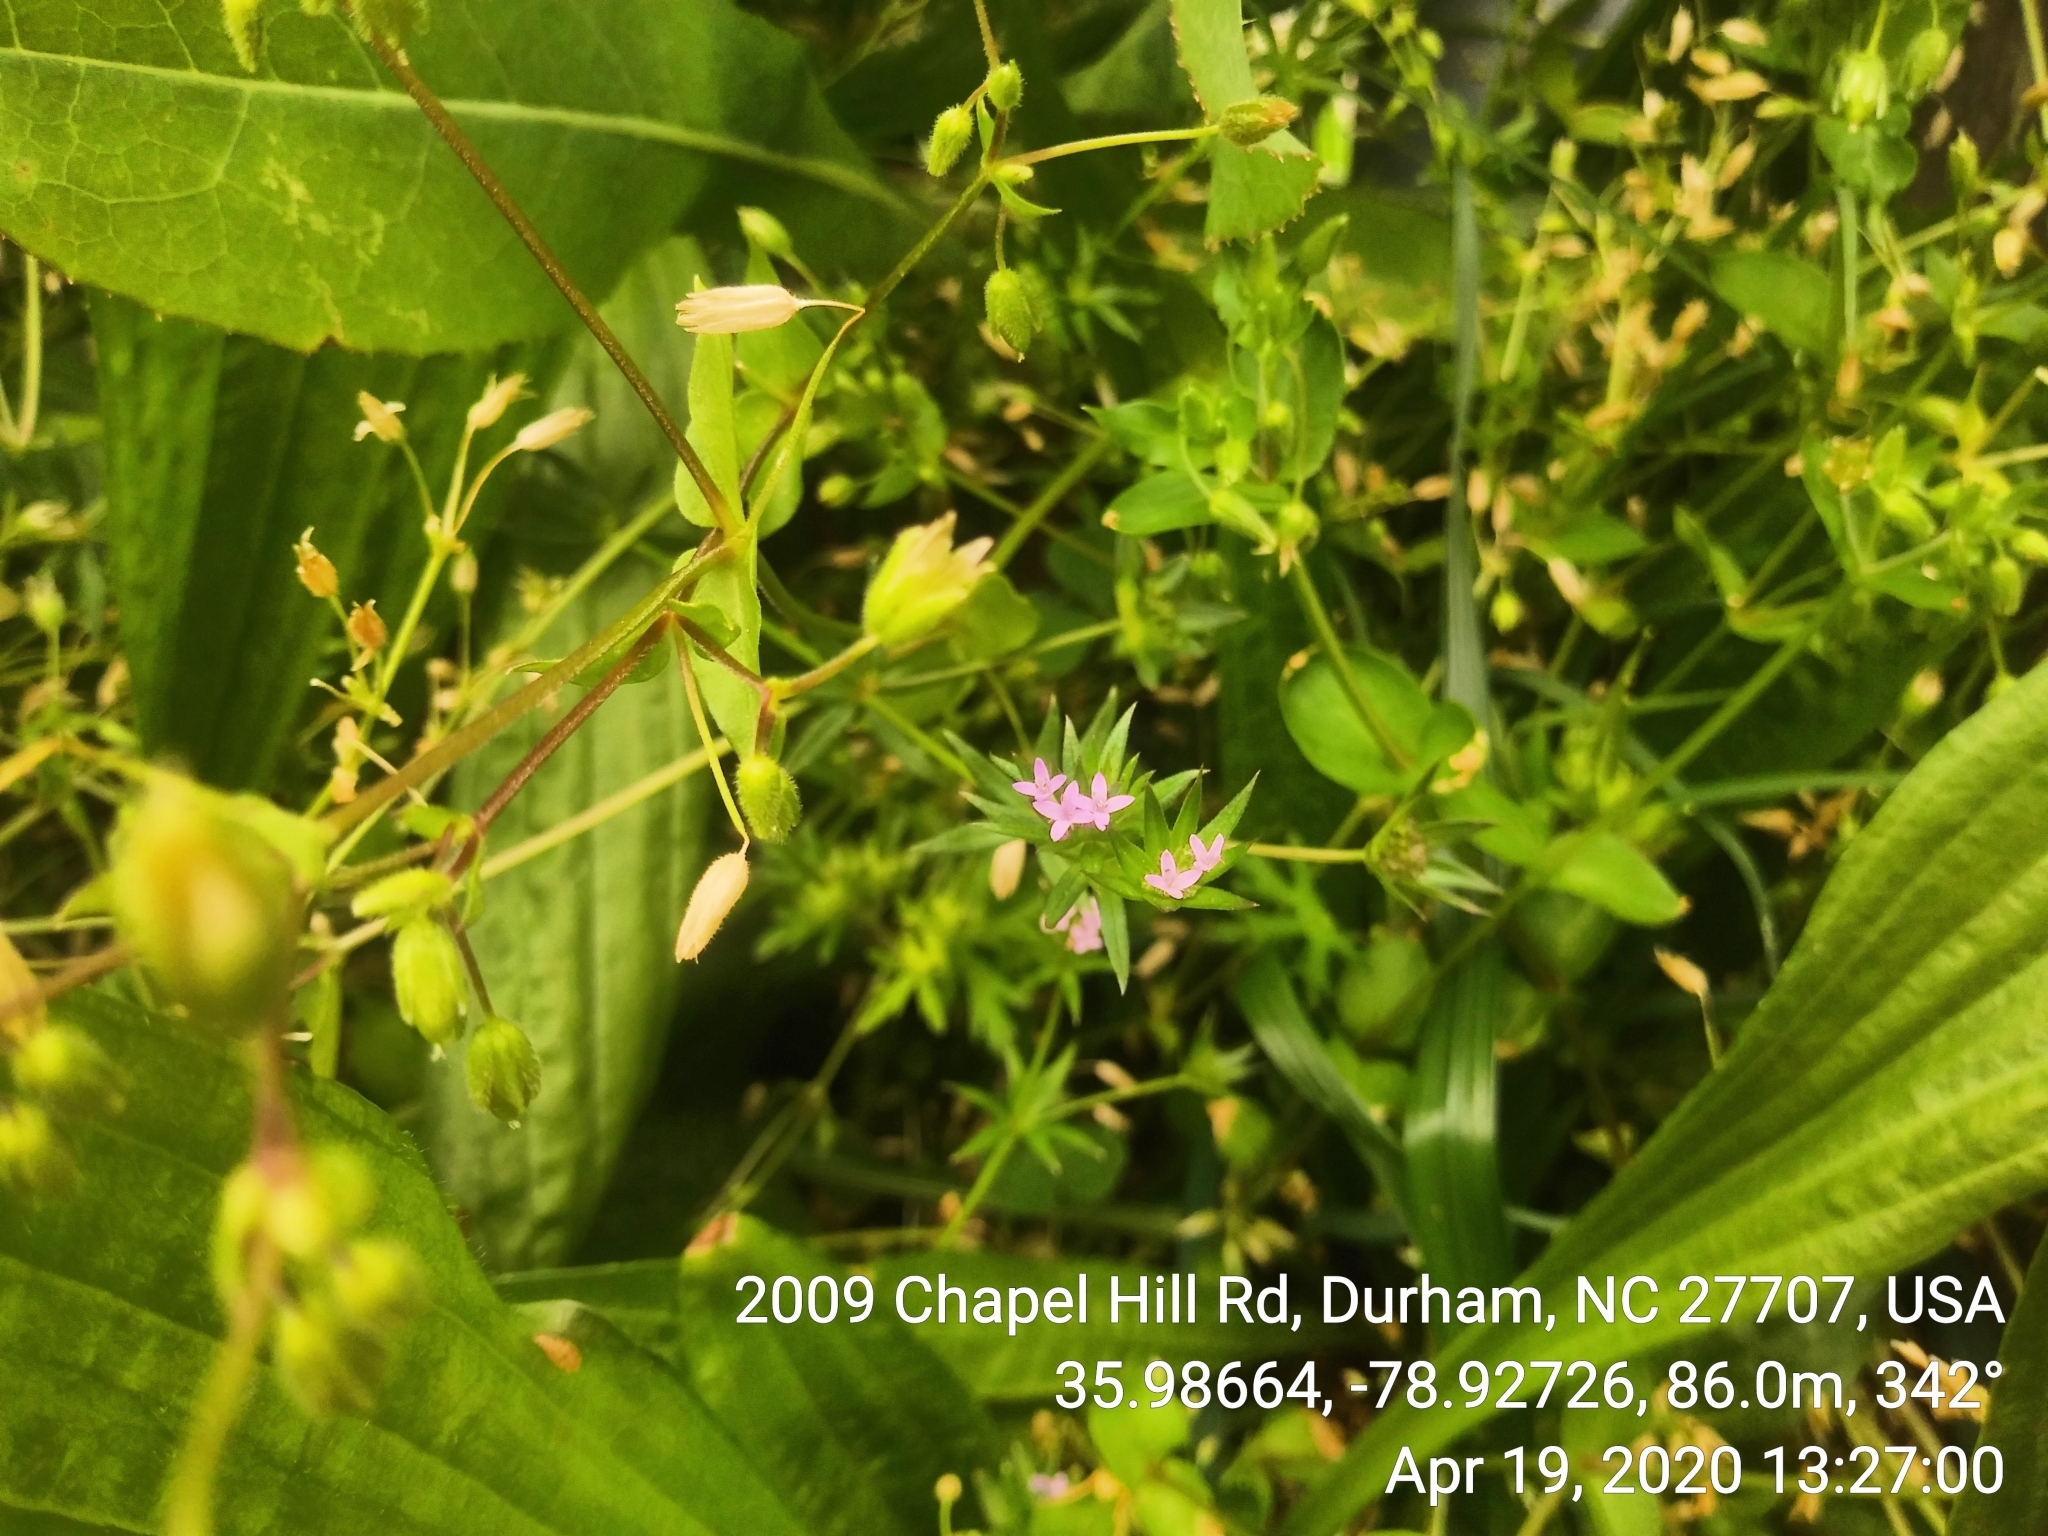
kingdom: Plantae
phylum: Tracheophyta
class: Magnoliopsida
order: Gentianales
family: Rubiaceae
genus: Sherardia
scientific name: Sherardia arvensis
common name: Field madder
